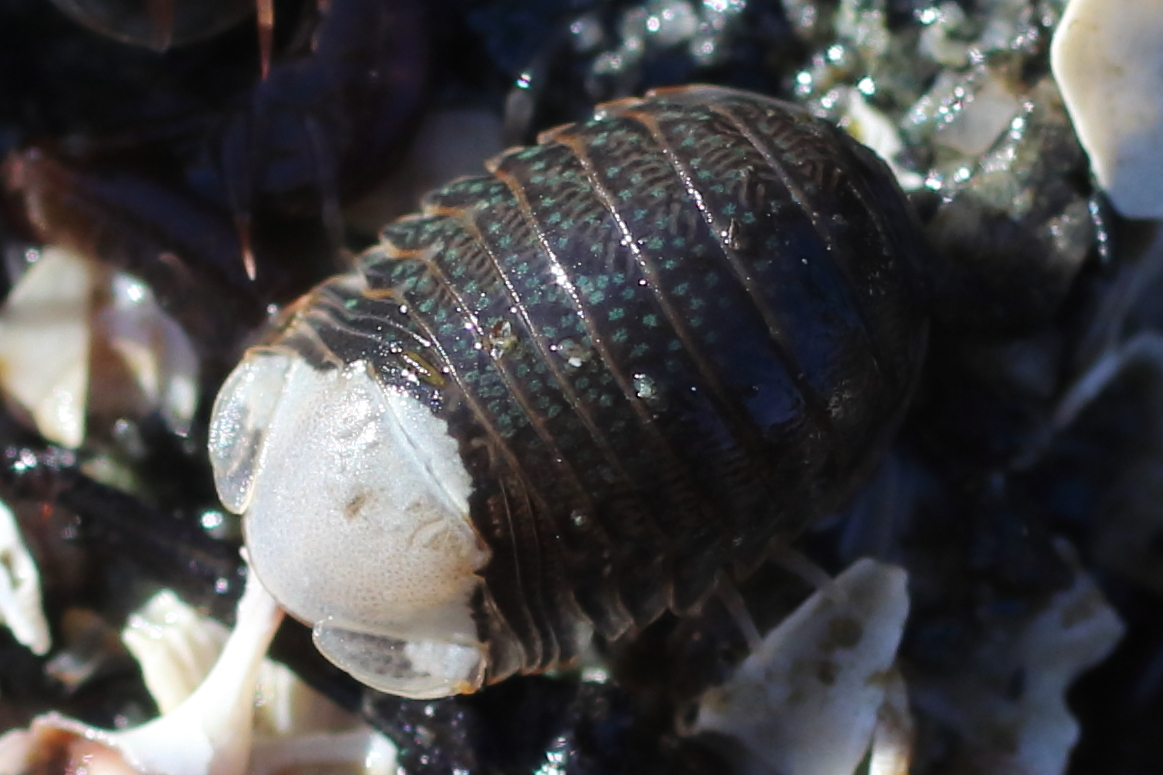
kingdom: Animalia
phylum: Arthropoda
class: Malacostraca
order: Isopoda
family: Sphaeromatidae
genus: Gnorimosphaeroma
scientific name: Gnorimosphaeroma oregonense
